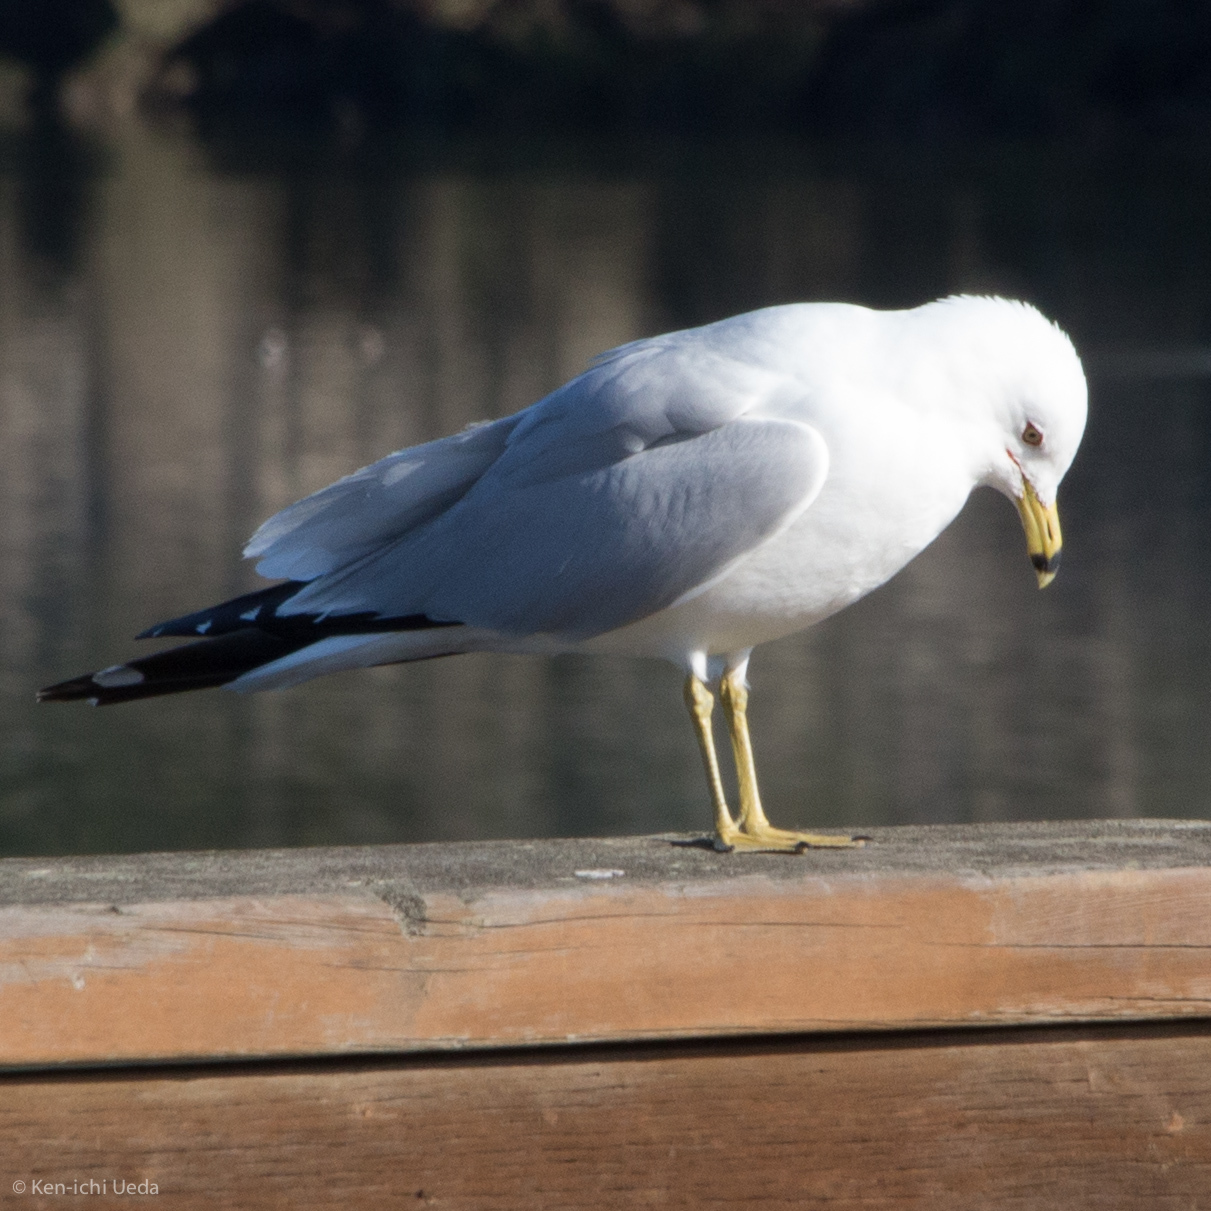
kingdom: Animalia
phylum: Chordata
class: Aves
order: Charadriiformes
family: Laridae
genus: Larus
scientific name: Larus delawarensis
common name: Ring-billed gull
